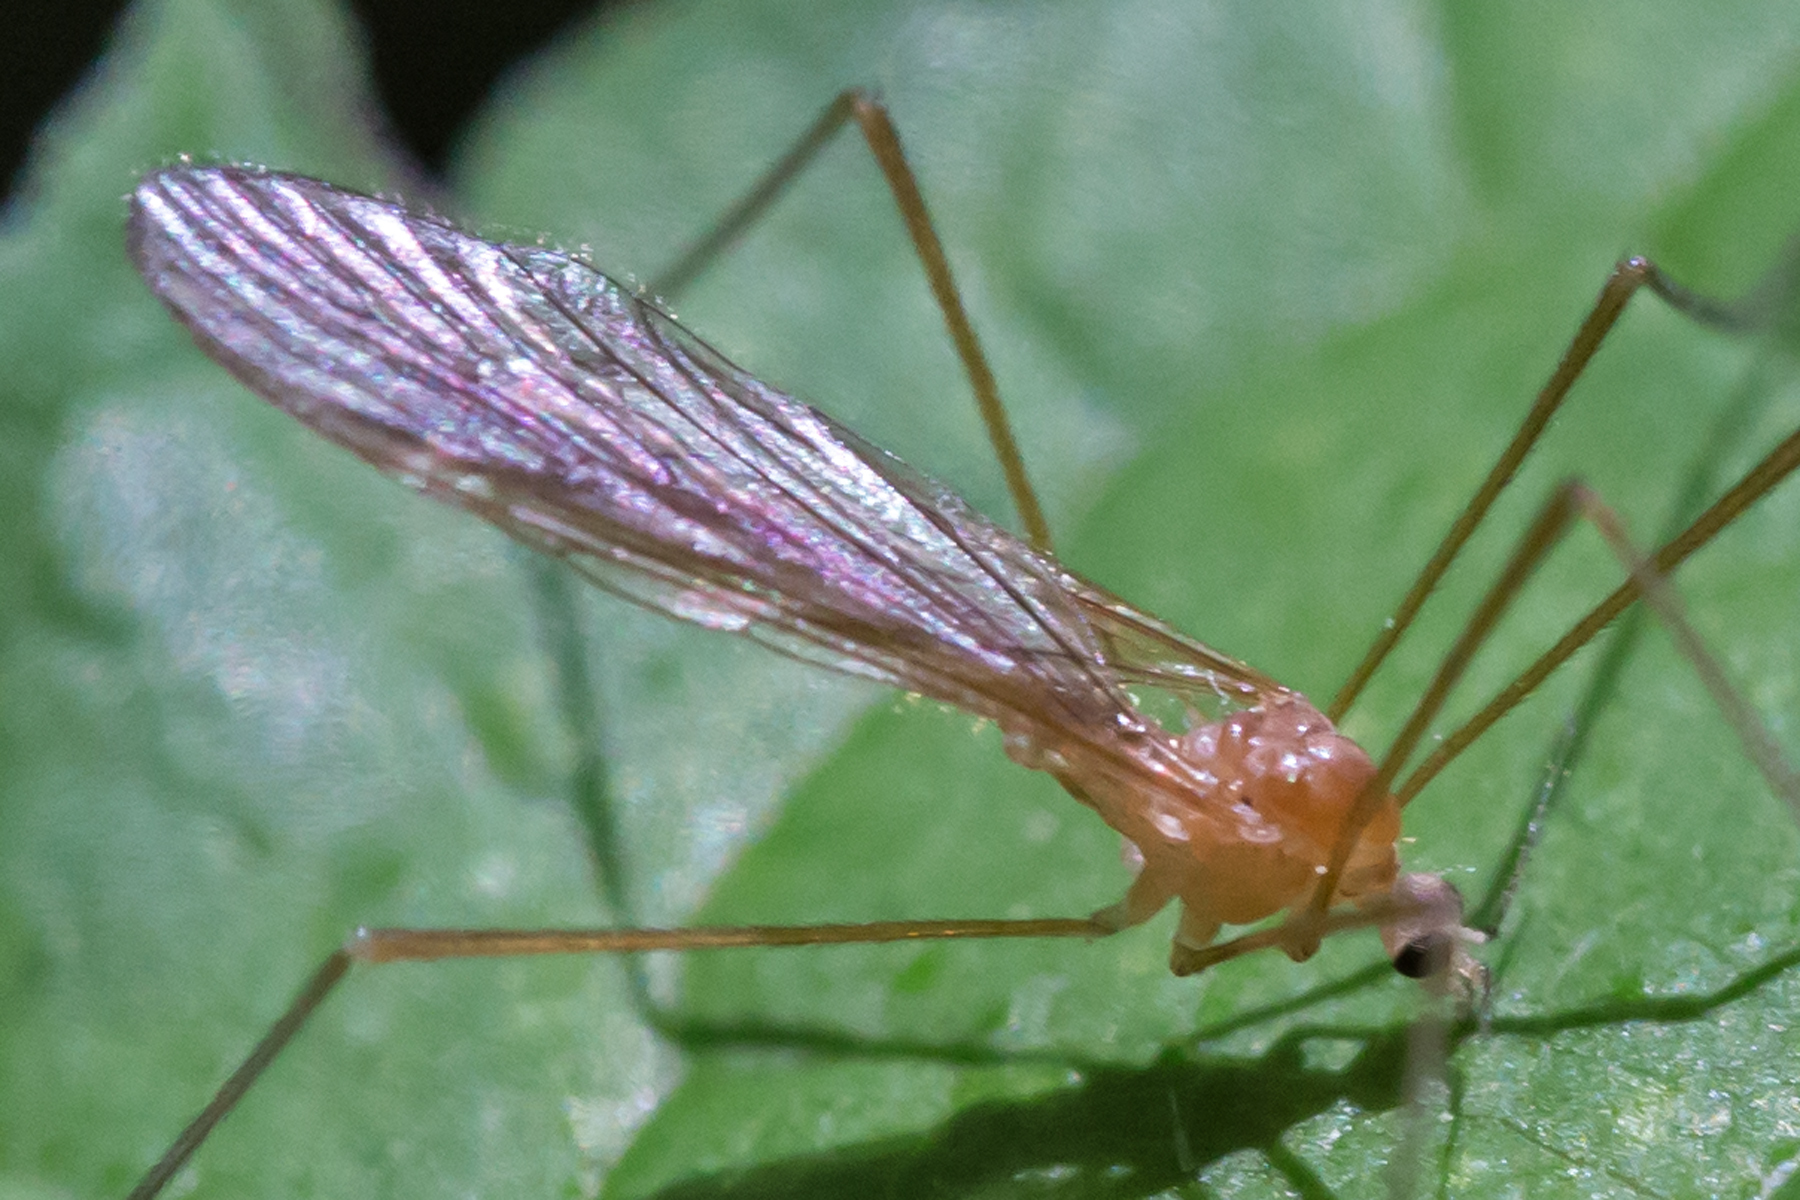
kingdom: Animalia
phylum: Arthropoda
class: Insecta
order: Diptera
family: Limoniidae
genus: Prolimnophila
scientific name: Prolimnophila areolata
